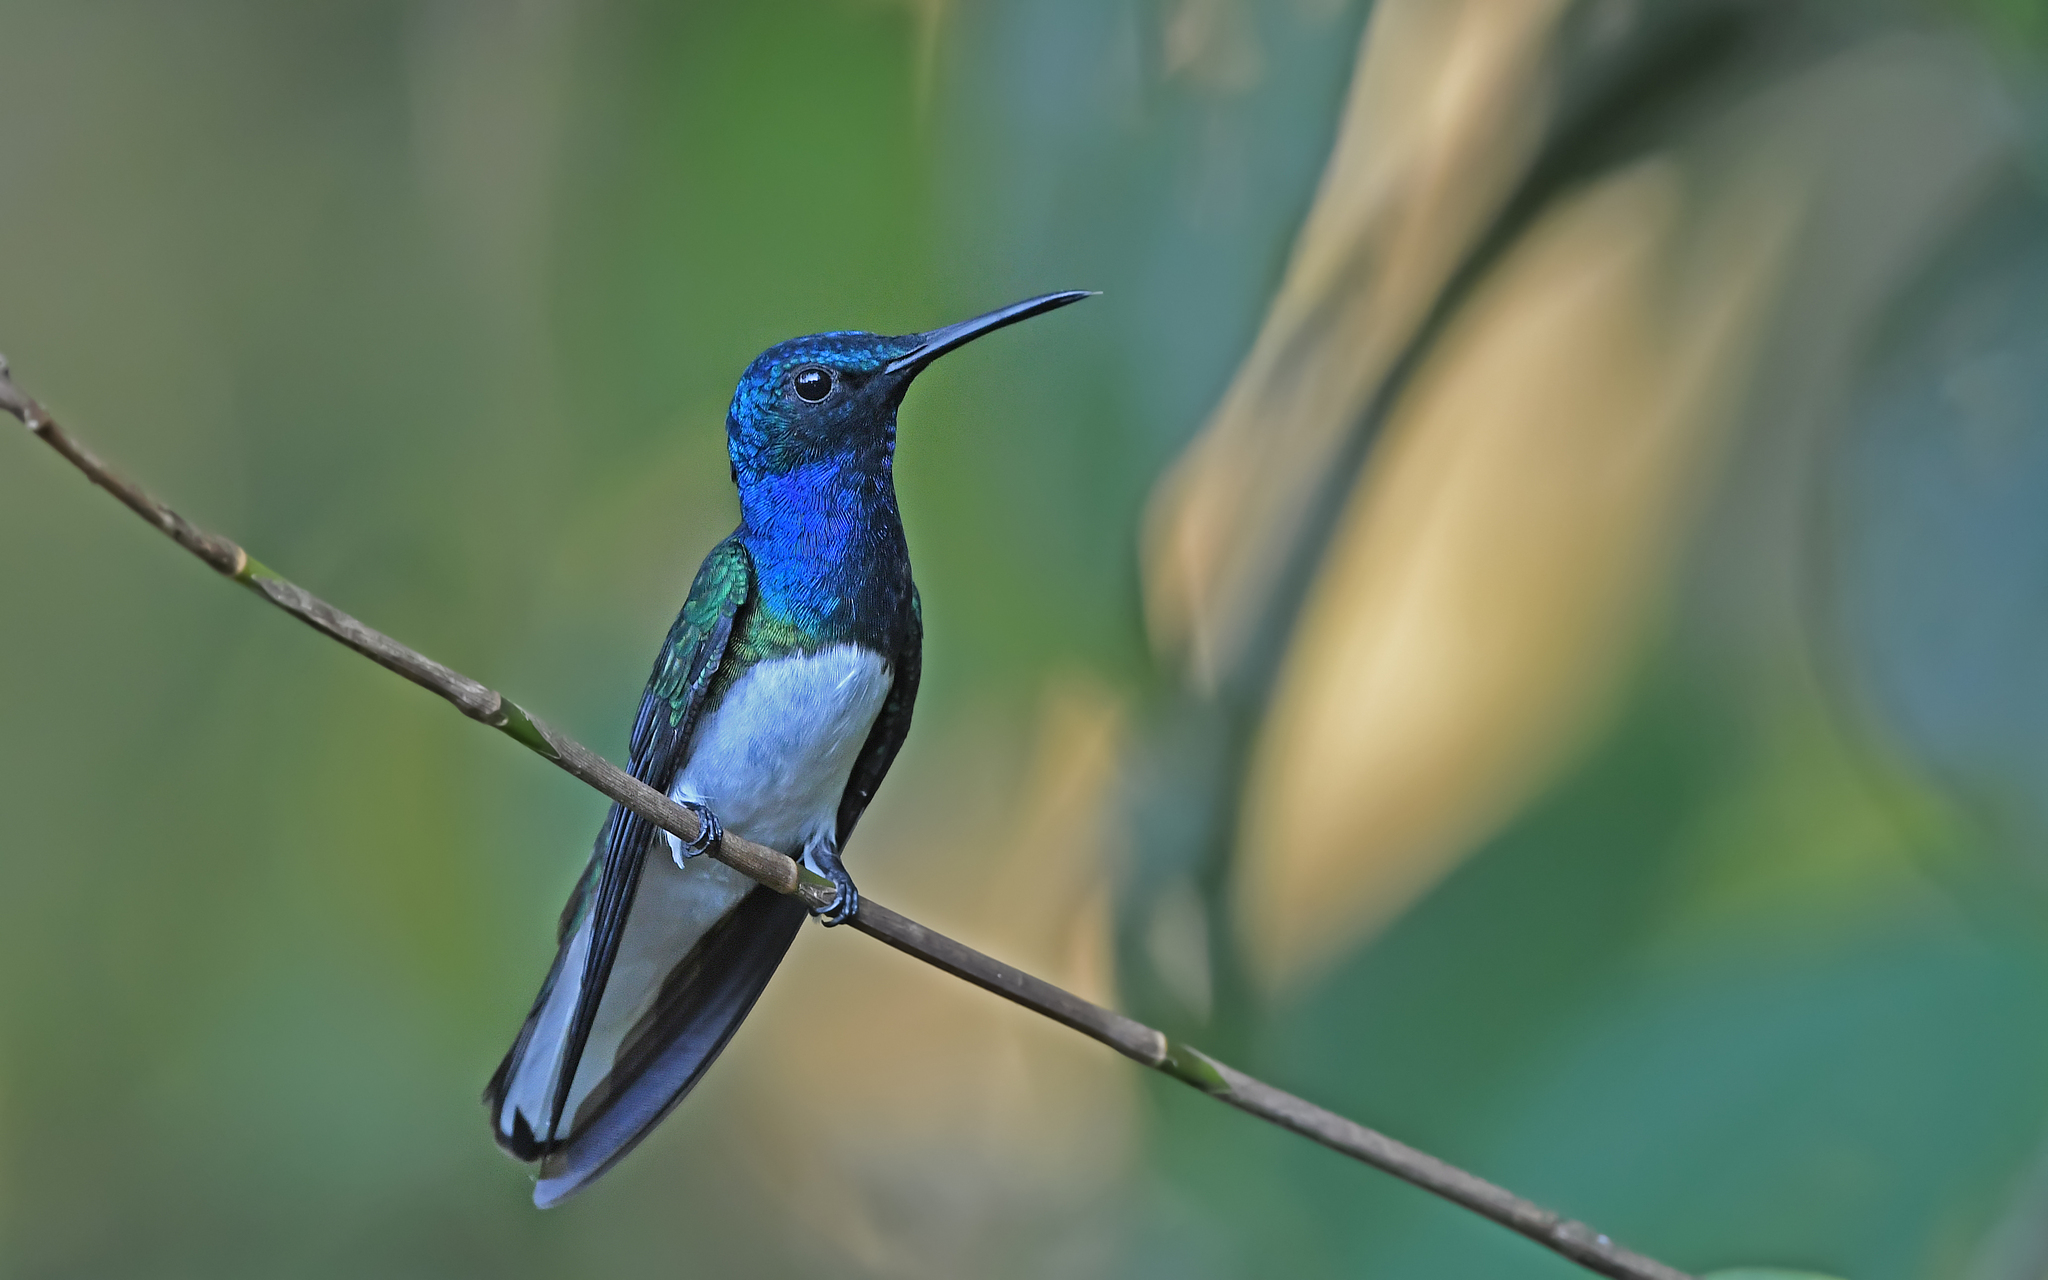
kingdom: Animalia
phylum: Chordata
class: Aves
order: Apodiformes
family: Trochilidae
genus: Florisuga
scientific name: Florisuga mellivora
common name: White-necked jacobin
